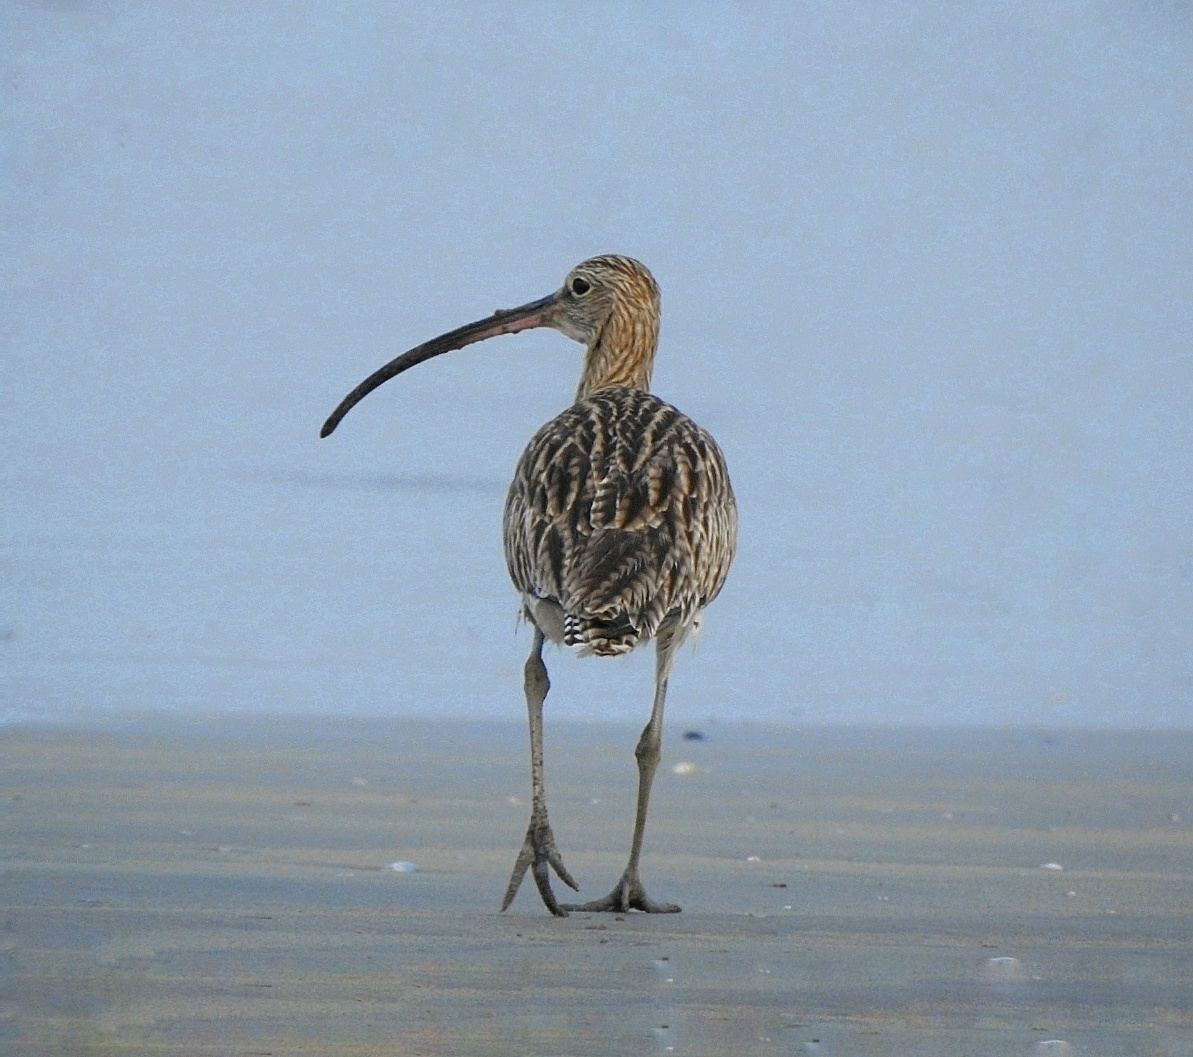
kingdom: Animalia
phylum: Chordata
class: Aves
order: Charadriiformes
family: Scolopacidae
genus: Numenius
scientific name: Numenius arquata
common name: Eurasian curlew
